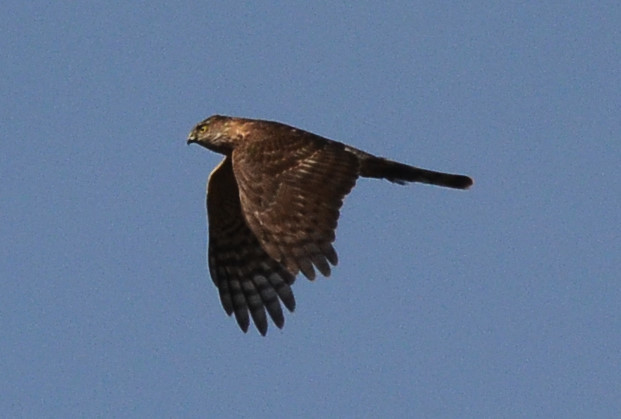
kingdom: Animalia
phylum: Chordata
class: Aves
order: Accipitriformes
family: Accipitridae
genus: Accipiter
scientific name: Accipiter striatus
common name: Sharp-shinned hawk
